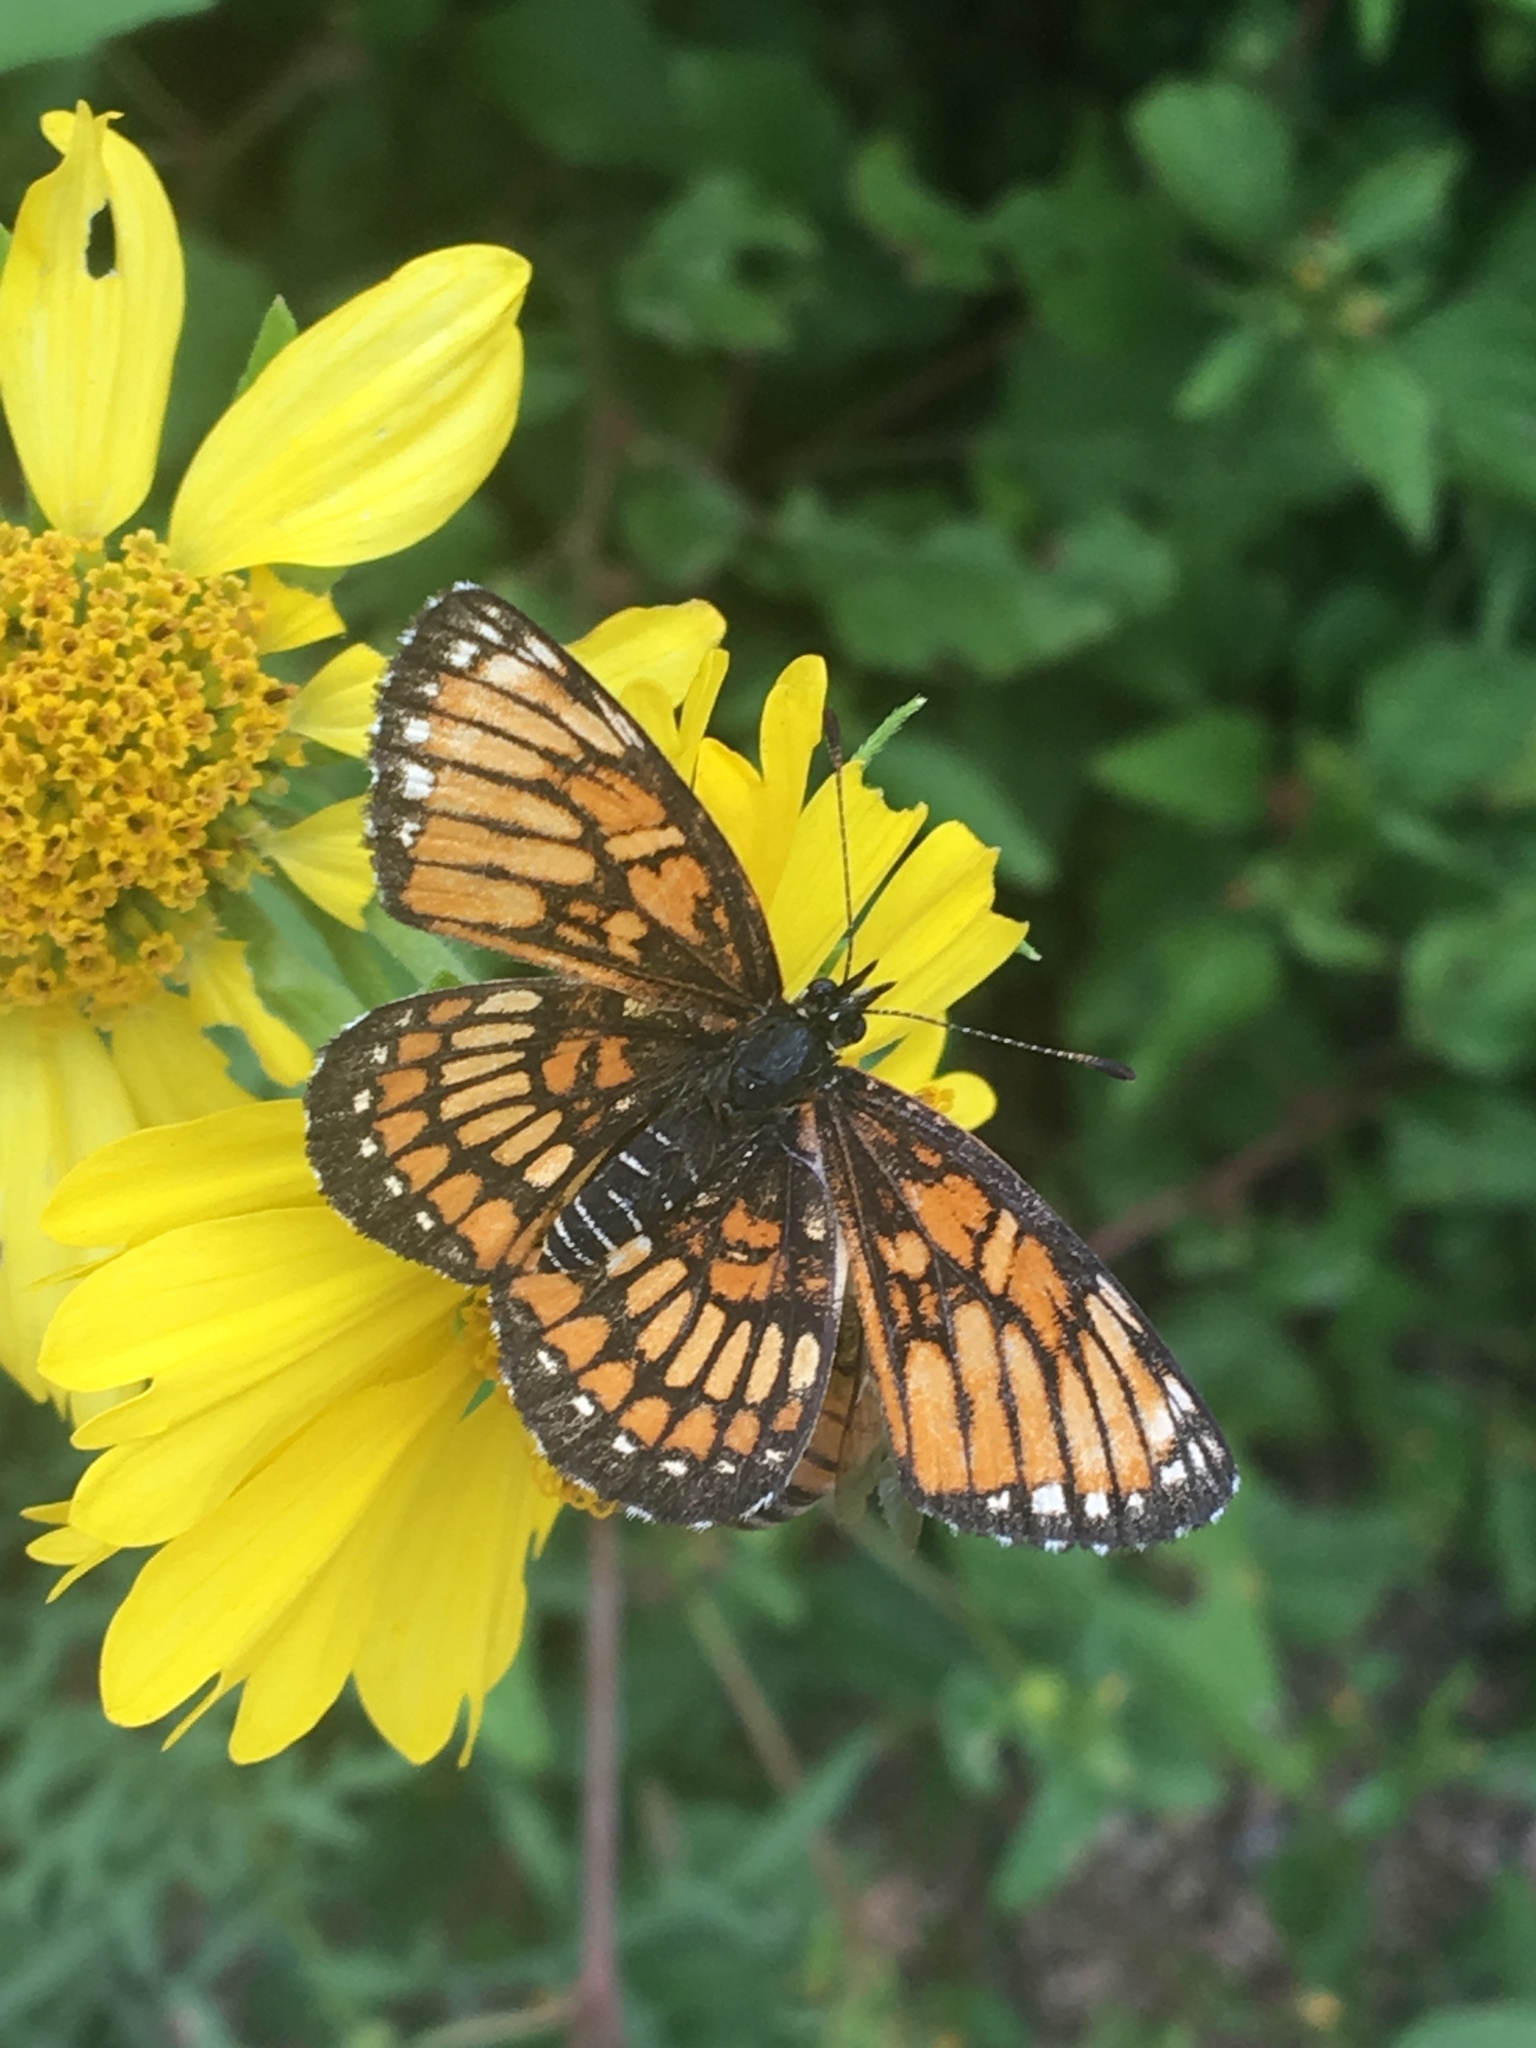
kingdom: Animalia
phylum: Arthropoda
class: Insecta
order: Lepidoptera
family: Nymphalidae
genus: Thessalia
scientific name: Thessalia theona
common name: Nymphalid moth
